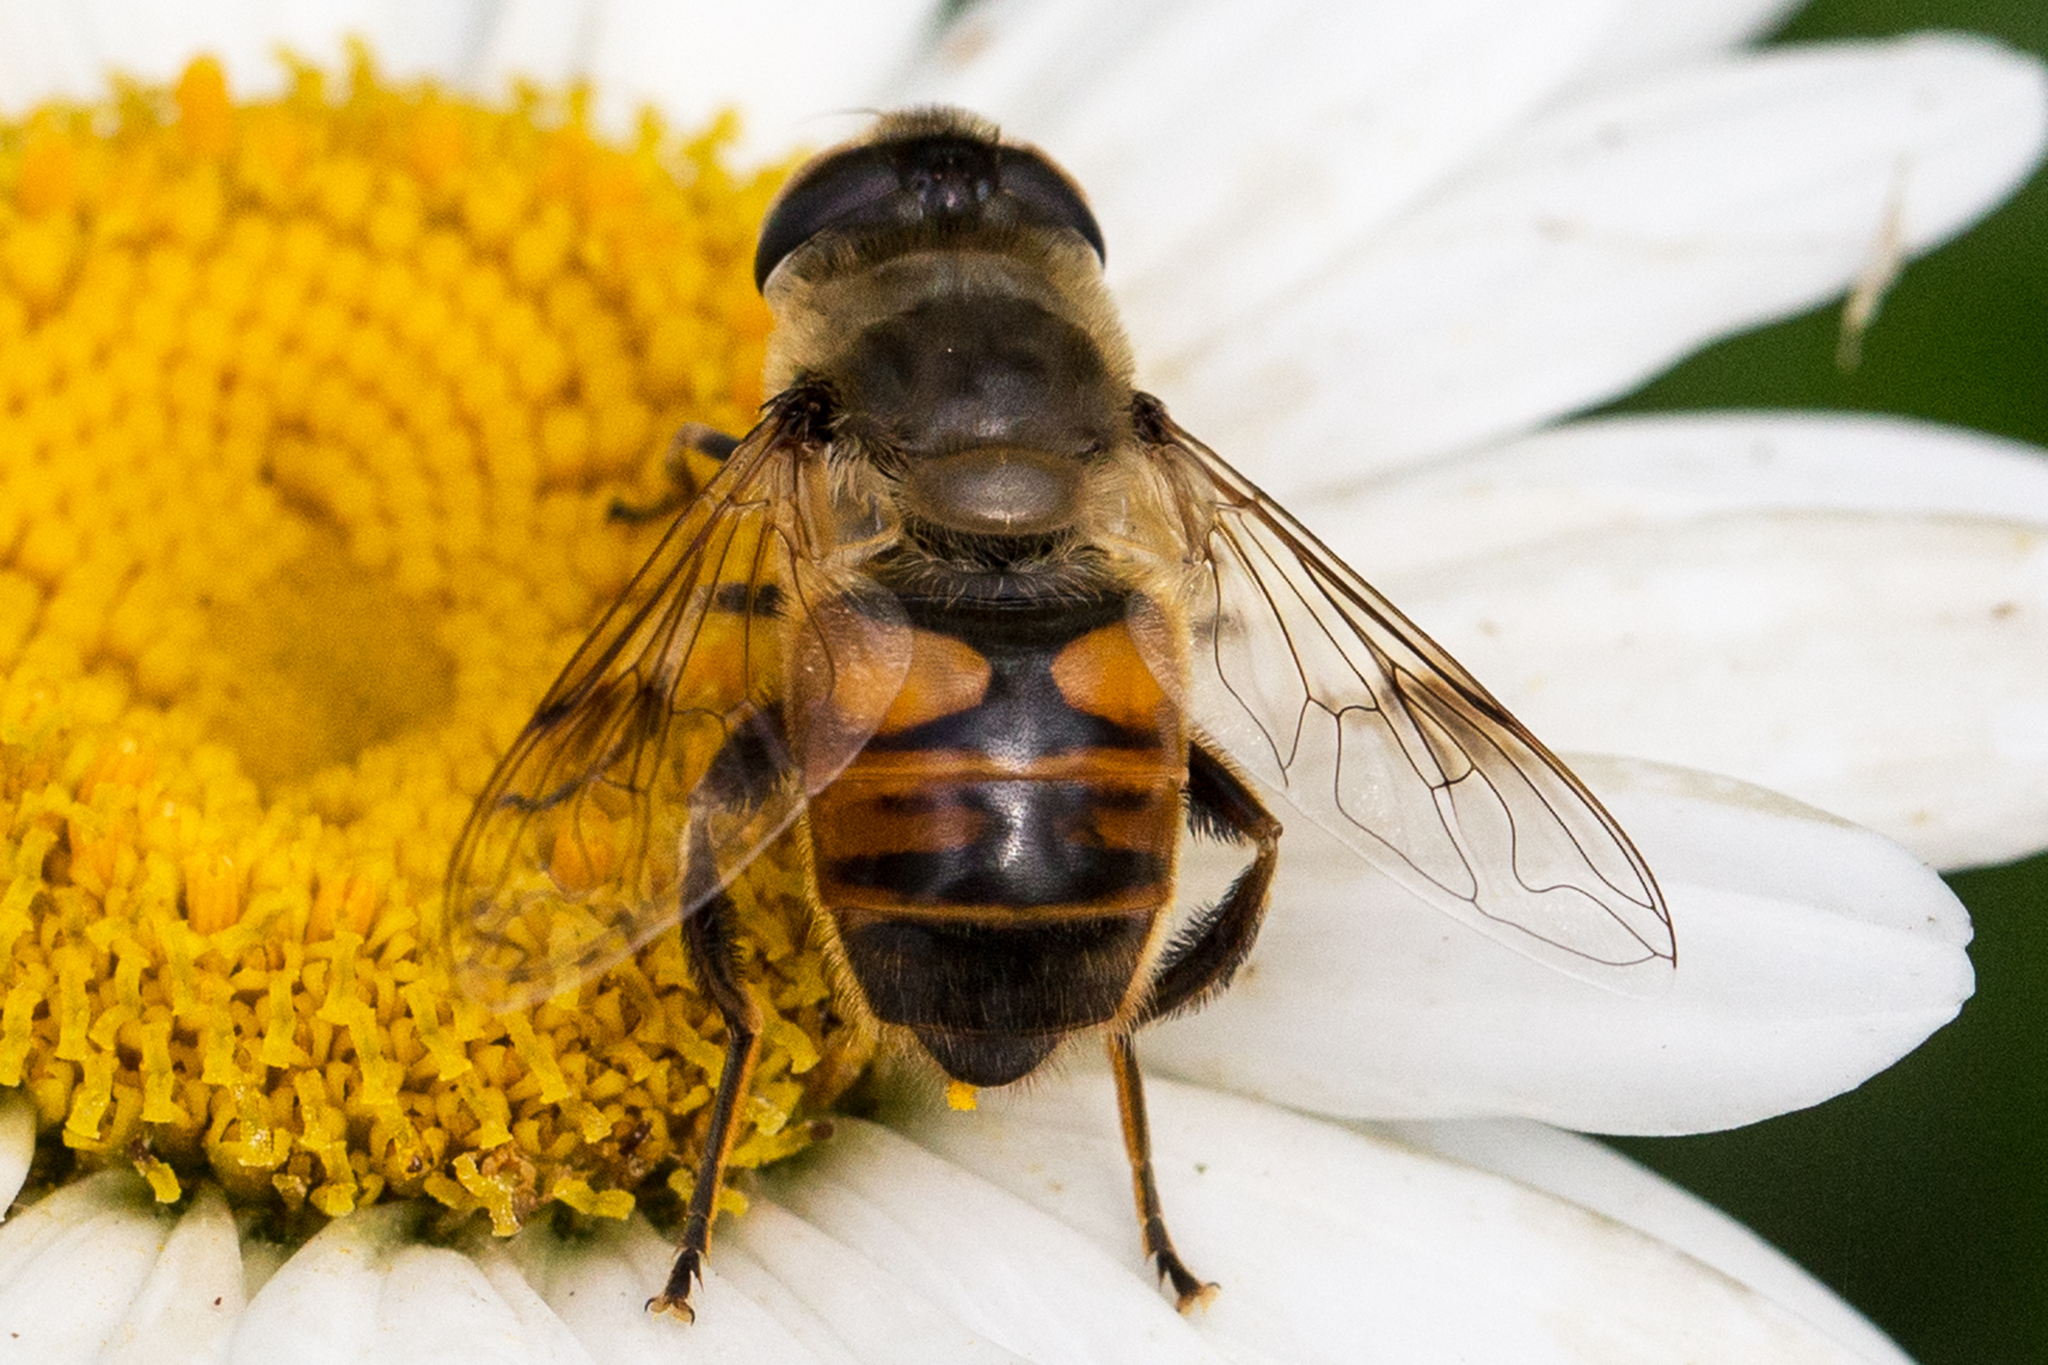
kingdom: Animalia
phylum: Arthropoda
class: Insecta
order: Diptera
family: Syrphidae
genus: Eristalis
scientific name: Eristalis tenax
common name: Drone fly
